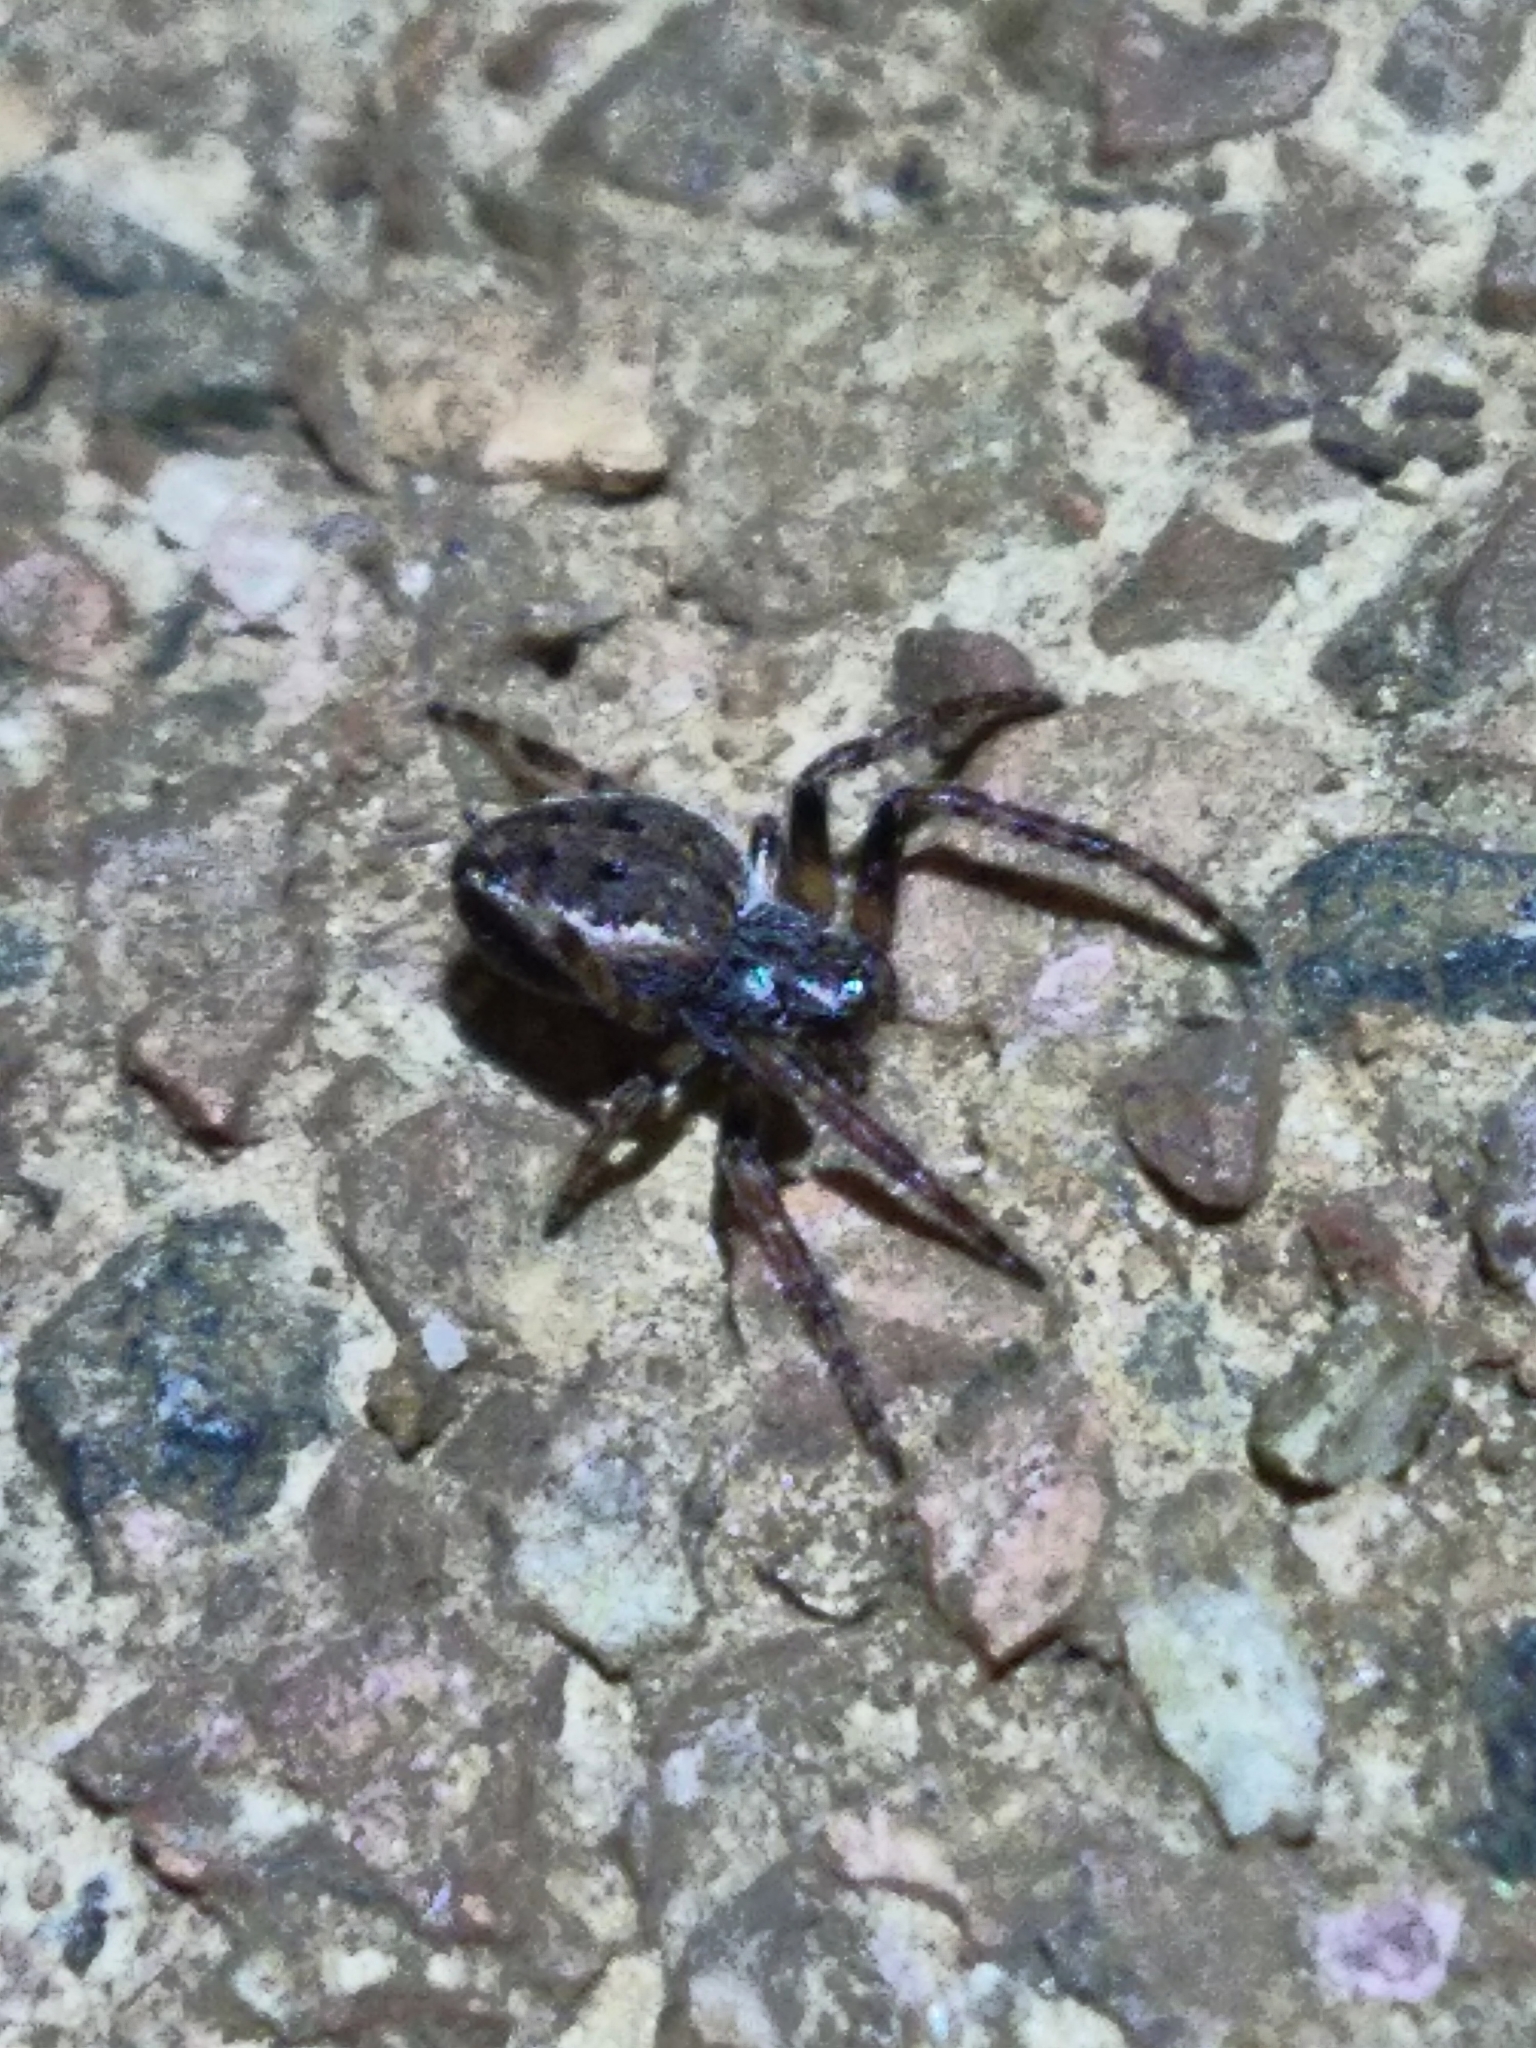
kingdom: Animalia
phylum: Arthropoda
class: Arachnida
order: Araneae
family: Araneidae
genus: Nuctenea
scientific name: Nuctenea umbratica
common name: Toad spider
